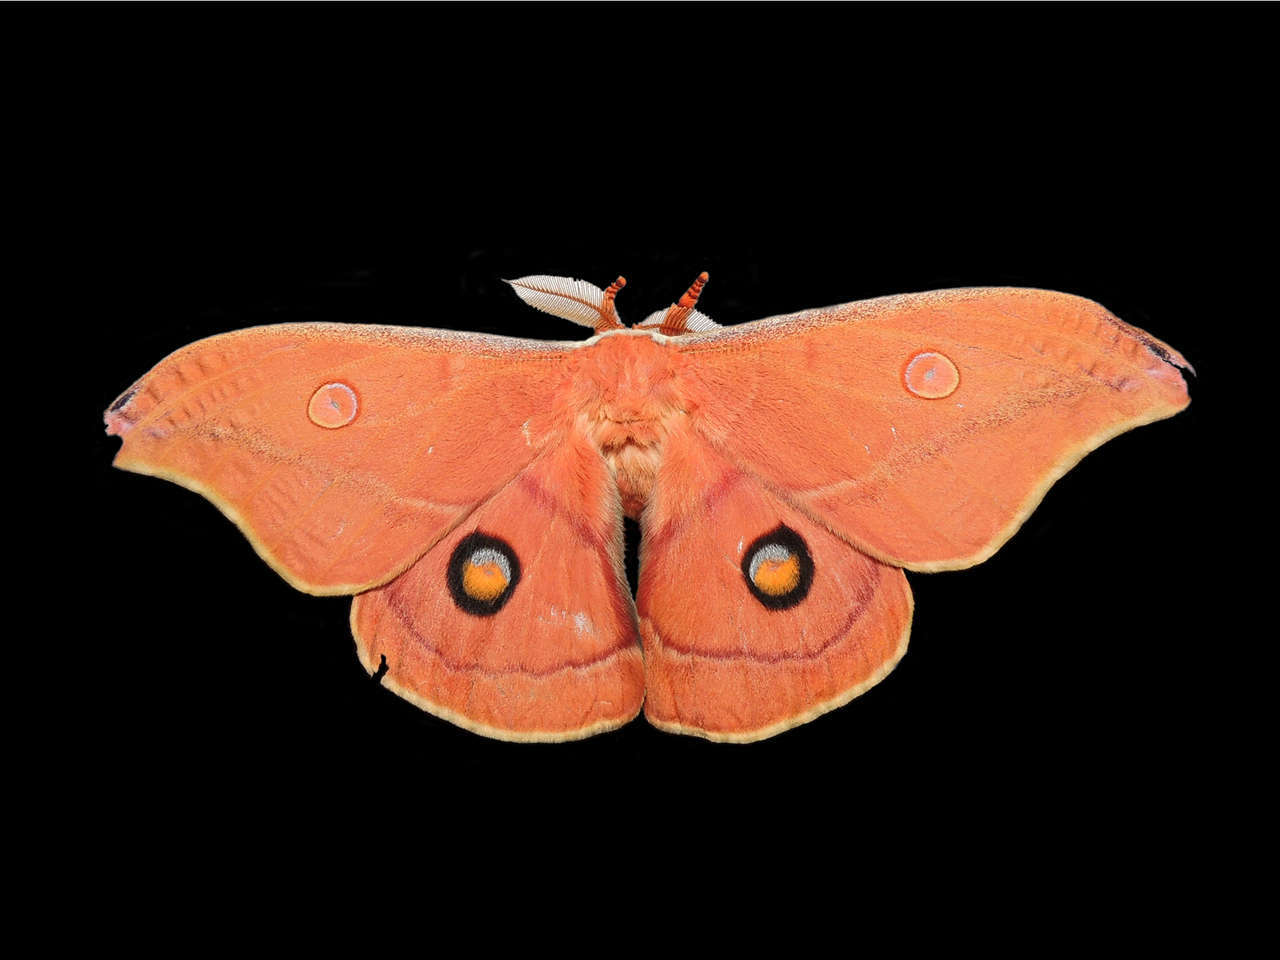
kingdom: Animalia
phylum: Arthropoda
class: Insecta
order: Lepidoptera
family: Saturniidae
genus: Opodiphthera
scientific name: Opodiphthera
